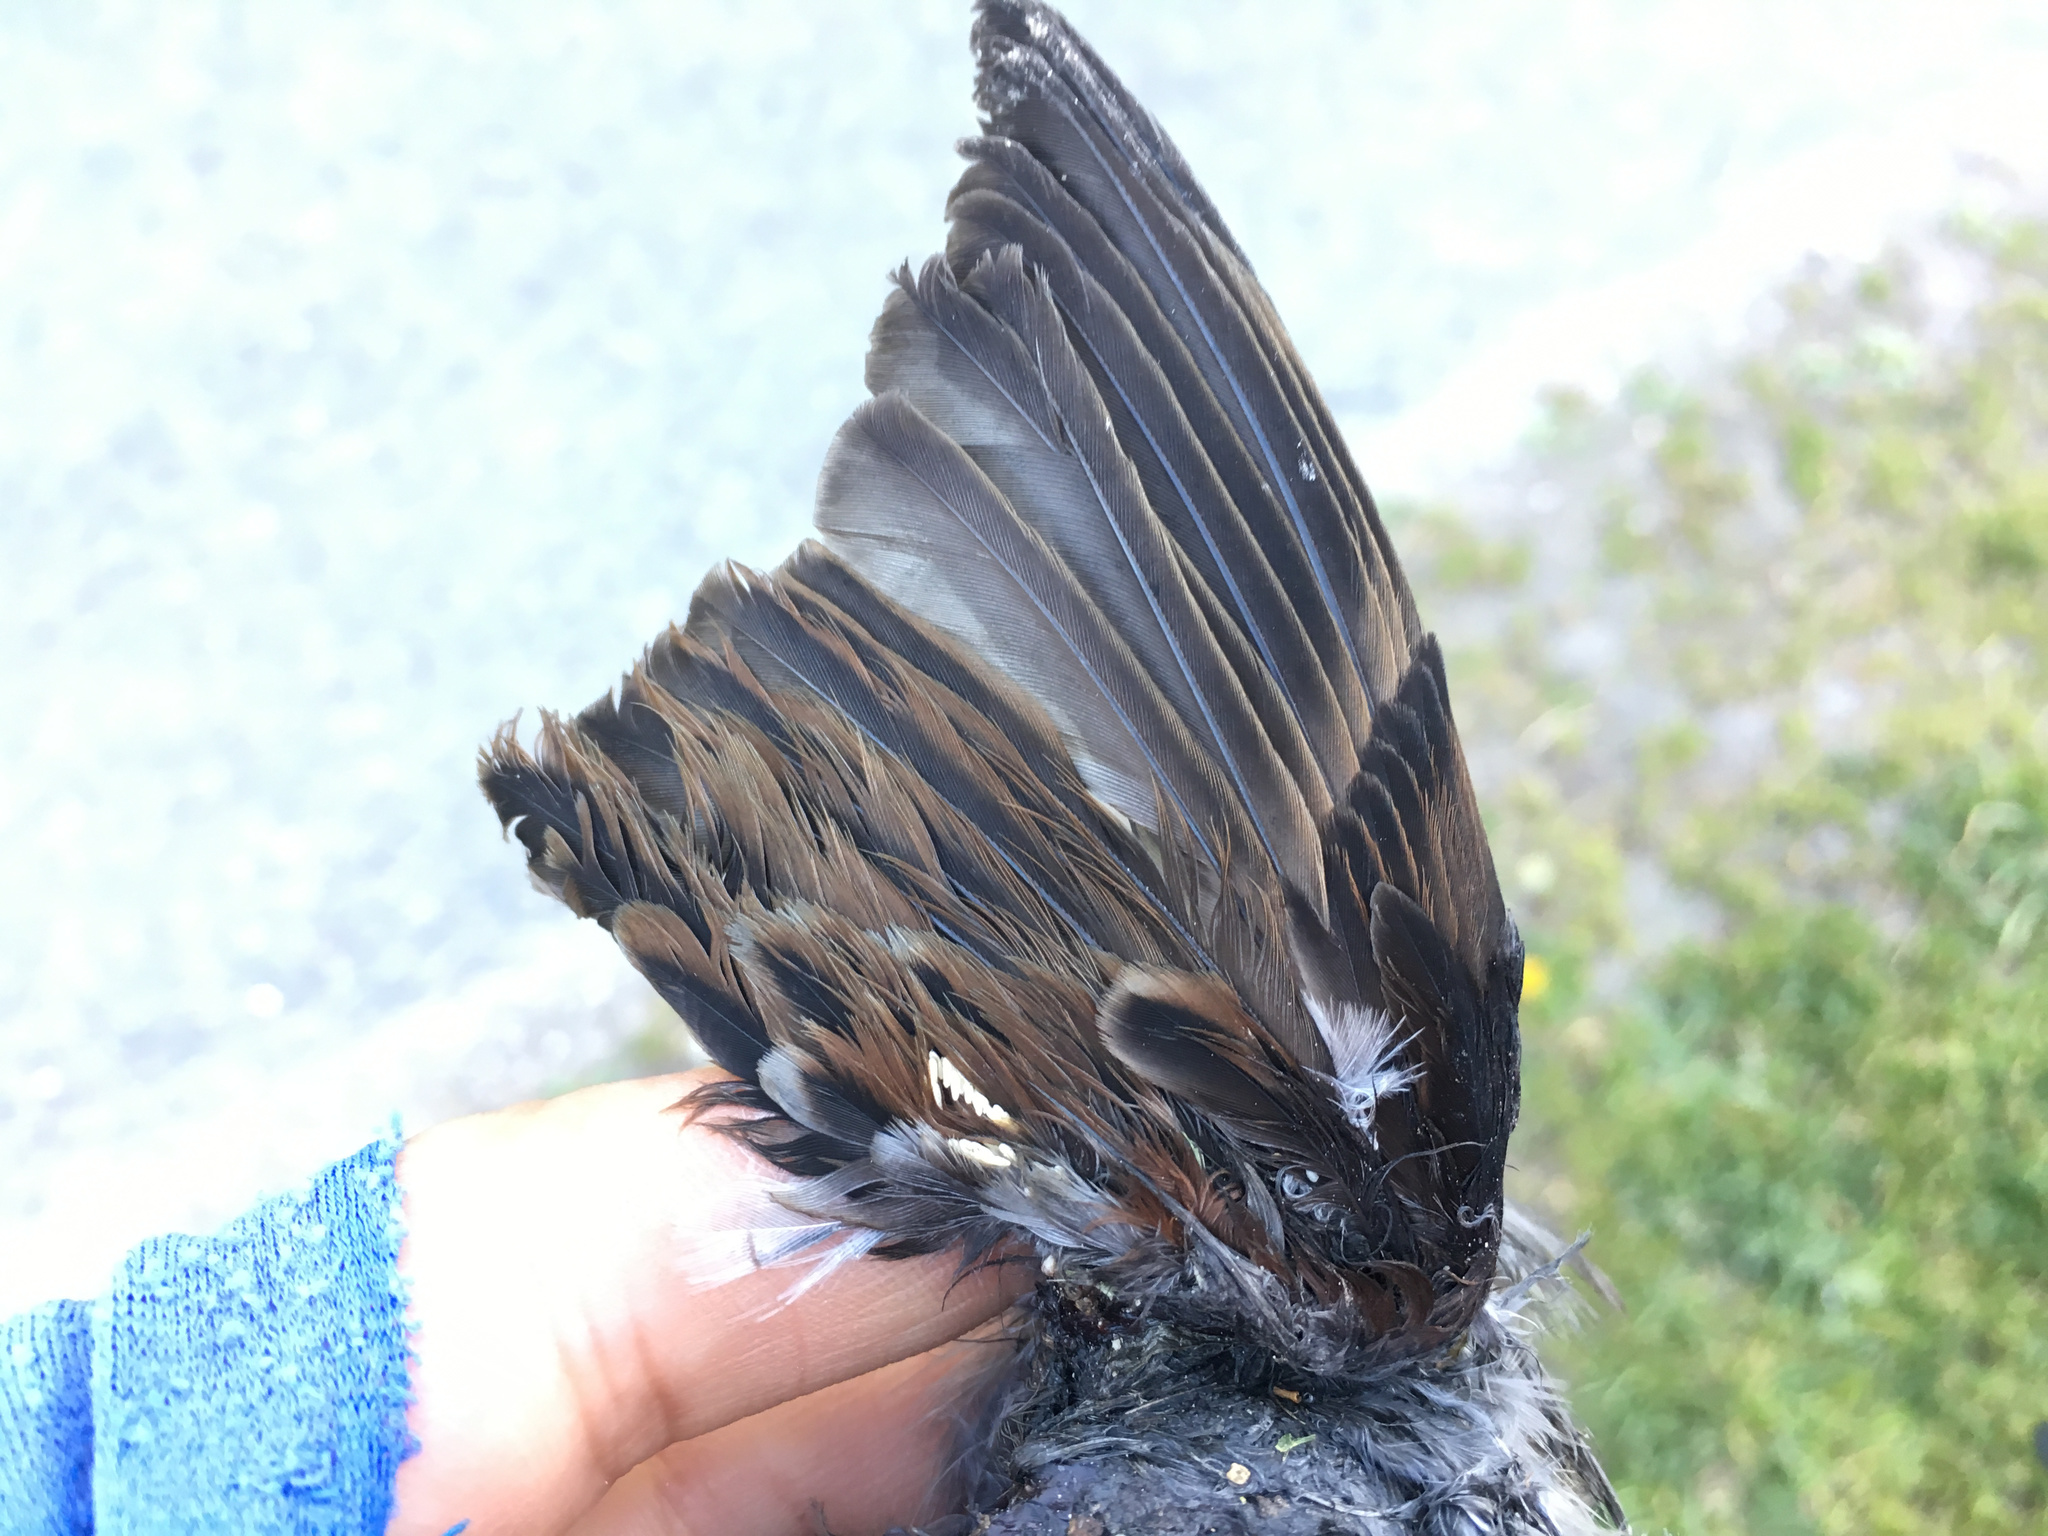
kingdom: Animalia
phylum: Chordata
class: Aves
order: Passeriformes
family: Passeridae
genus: Passer
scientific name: Passer domesticus
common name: House sparrow
